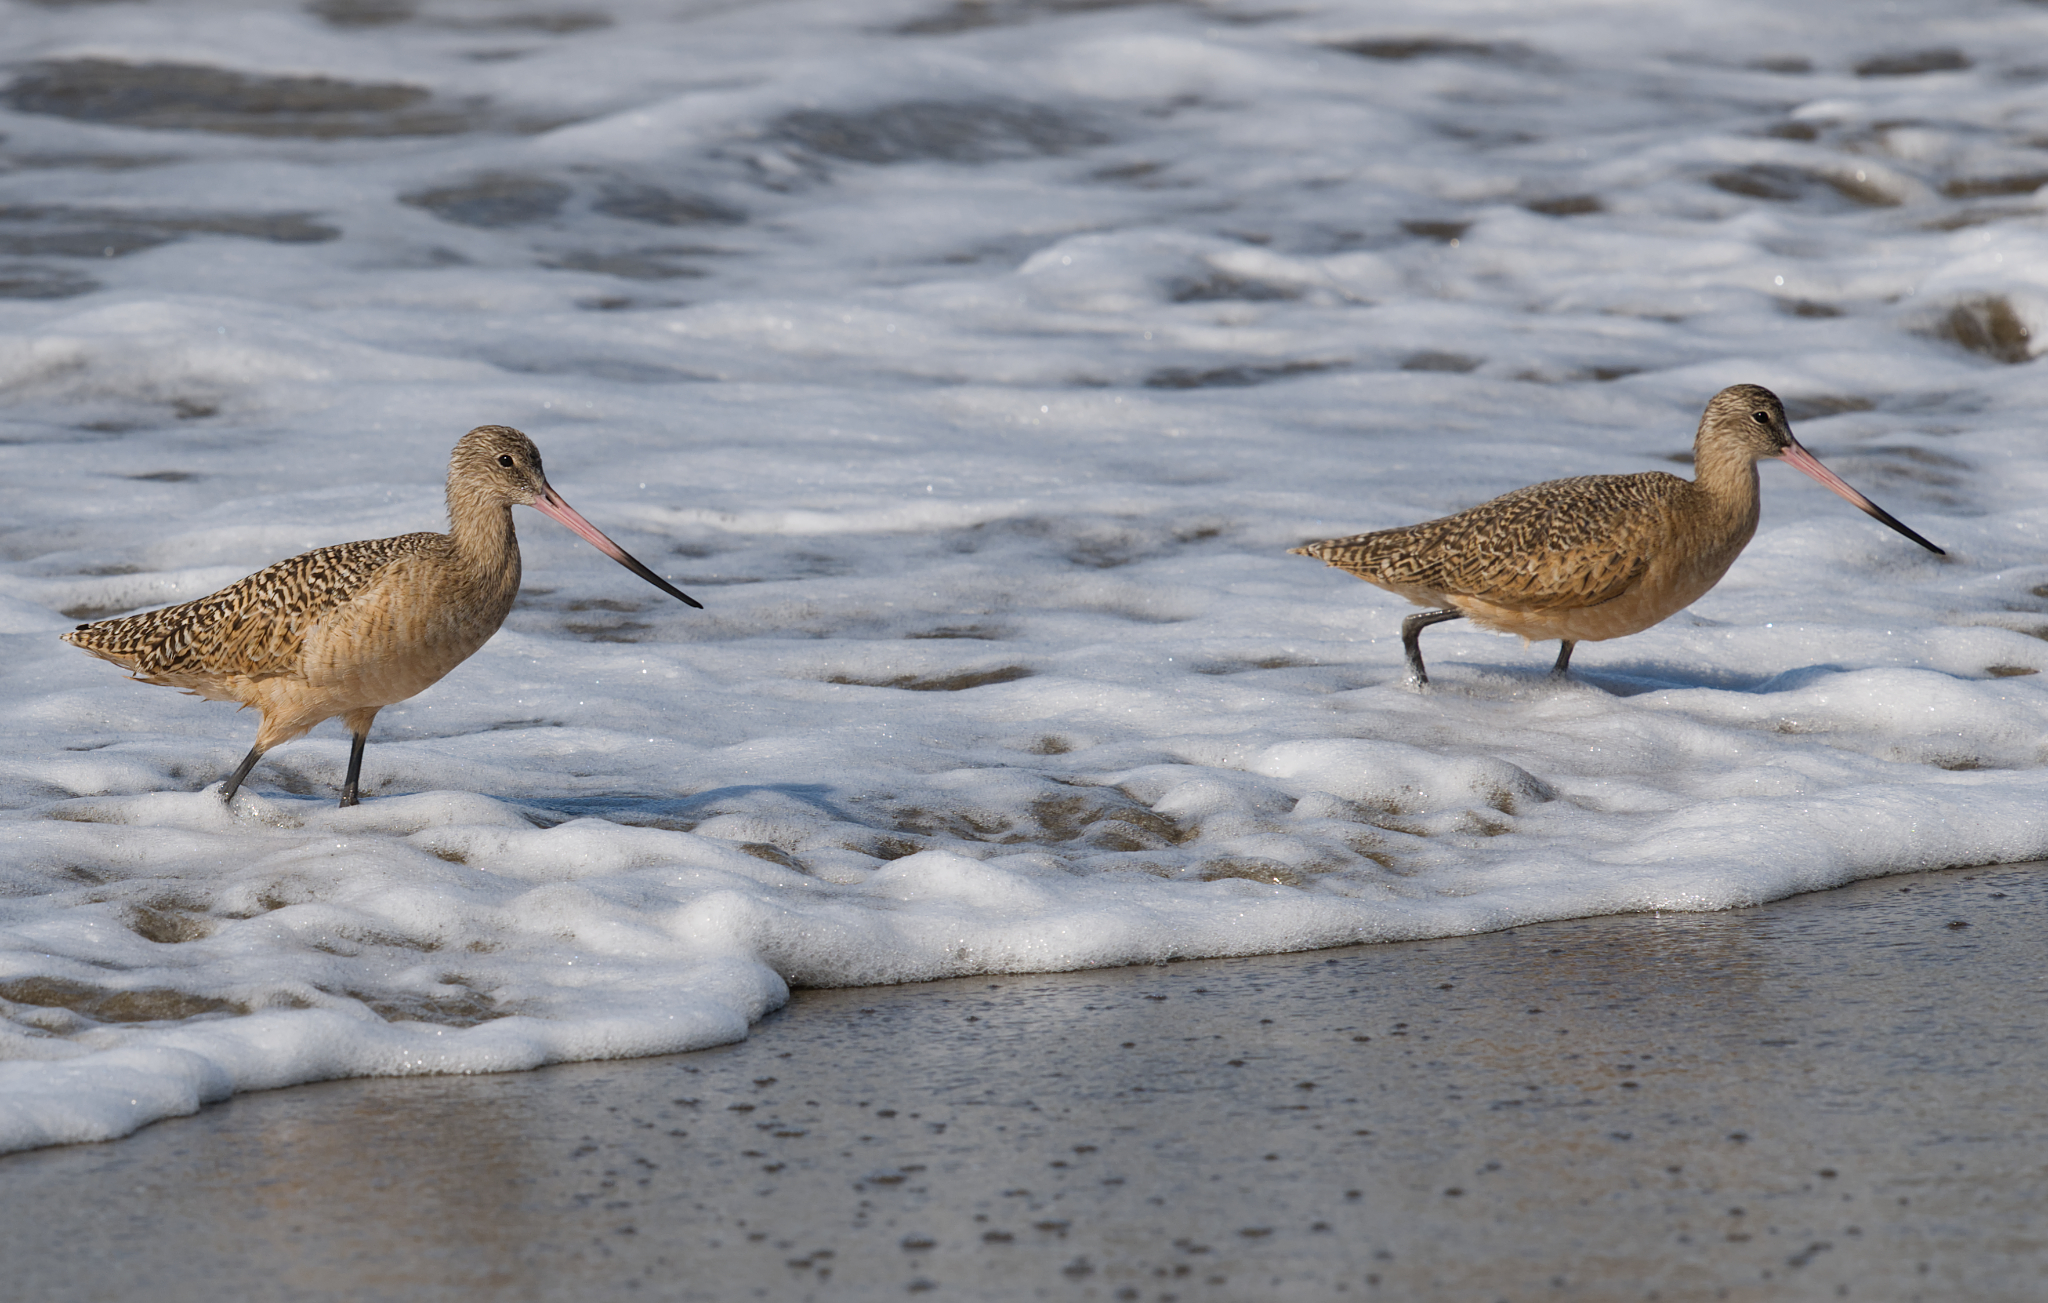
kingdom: Animalia
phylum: Chordata
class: Aves
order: Charadriiformes
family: Scolopacidae
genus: Limosa
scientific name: Limosa fedoa
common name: Marbled godwit
